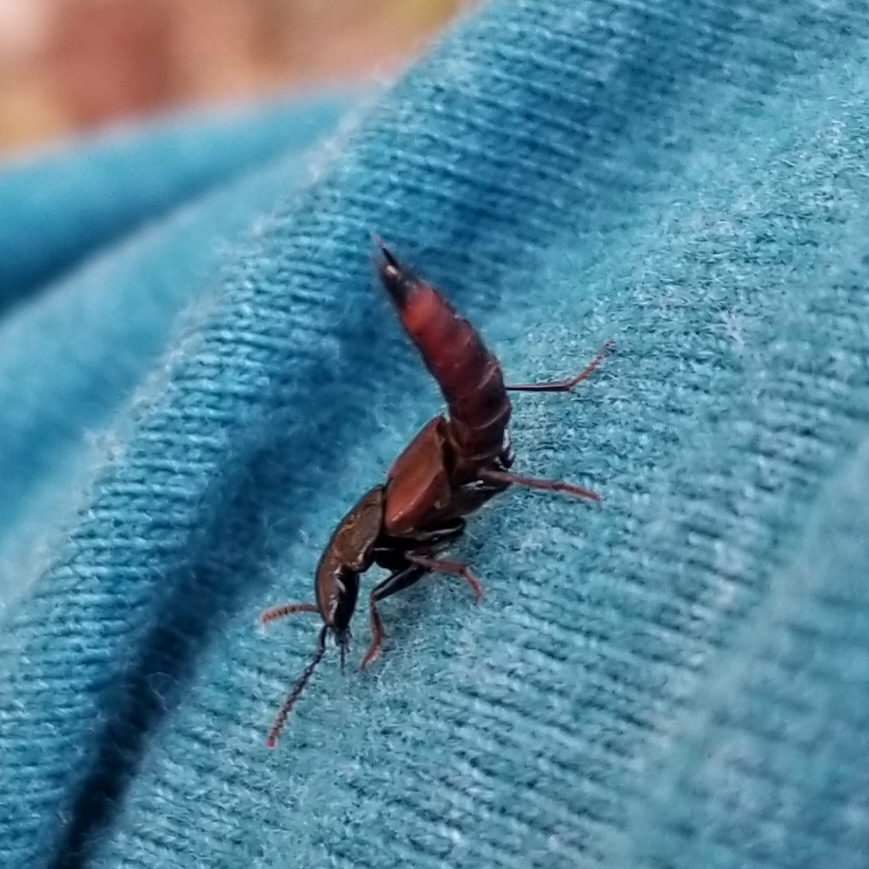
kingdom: Animalia
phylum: Arthropoda
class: Insecta
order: Coleoptera
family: Staphylinidae
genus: Hesperus
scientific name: Hesperus baltimorensis
